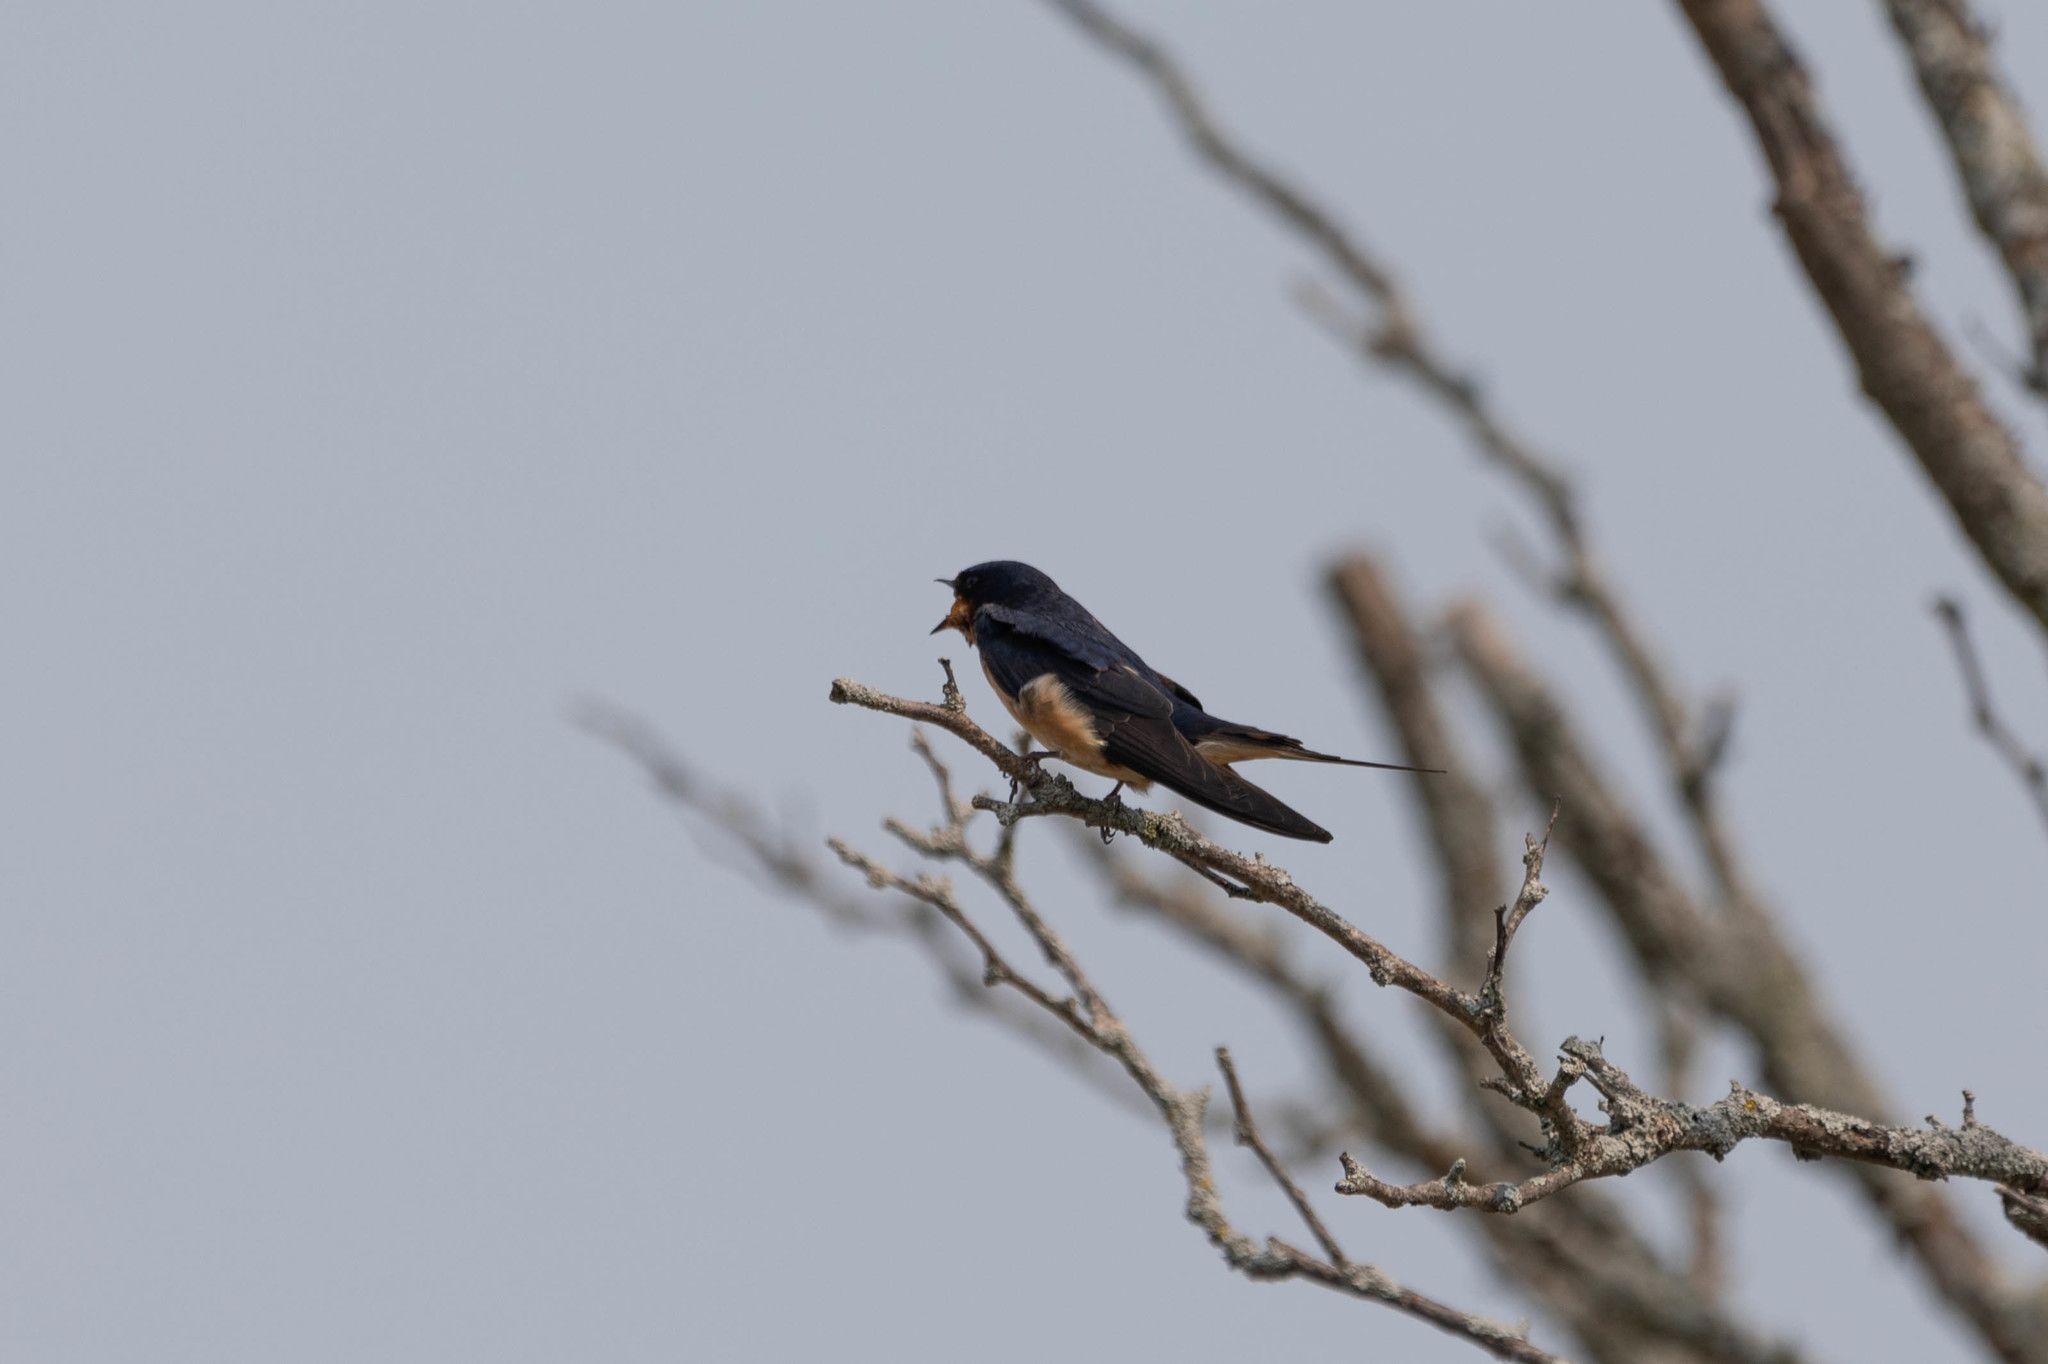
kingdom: Animalia
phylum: Chordata
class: Aves
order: Passeriformes
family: Hirundinidae
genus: Hirundo
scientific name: Hirundo rustica
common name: Barn swallow
